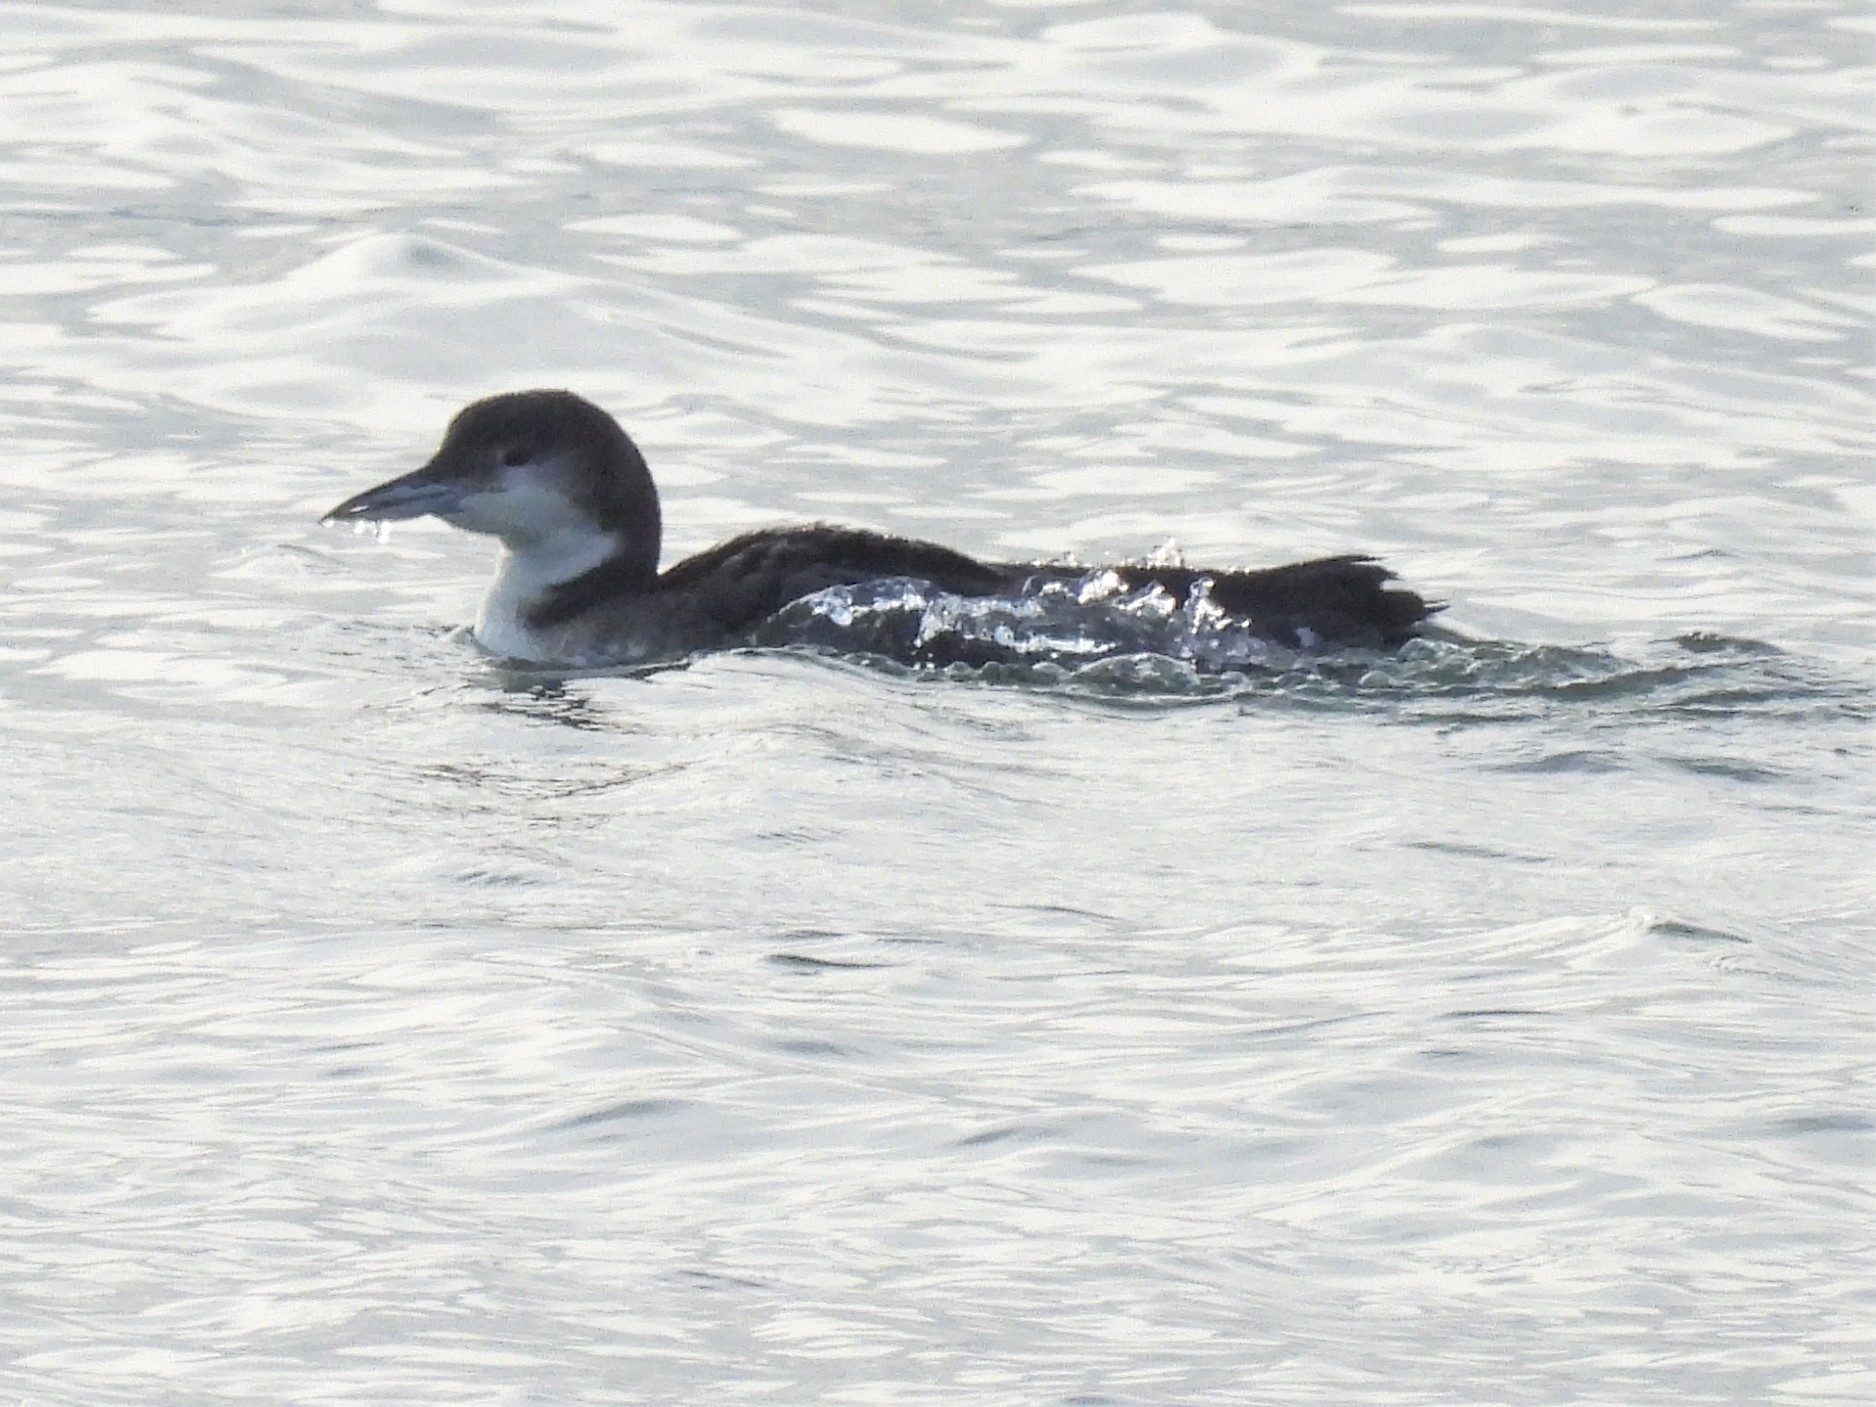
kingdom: Animalia
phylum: Chordata
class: Aves
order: Gaviiformes
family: Gaviidae
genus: Gavia
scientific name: Gavia immer
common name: Common loon
